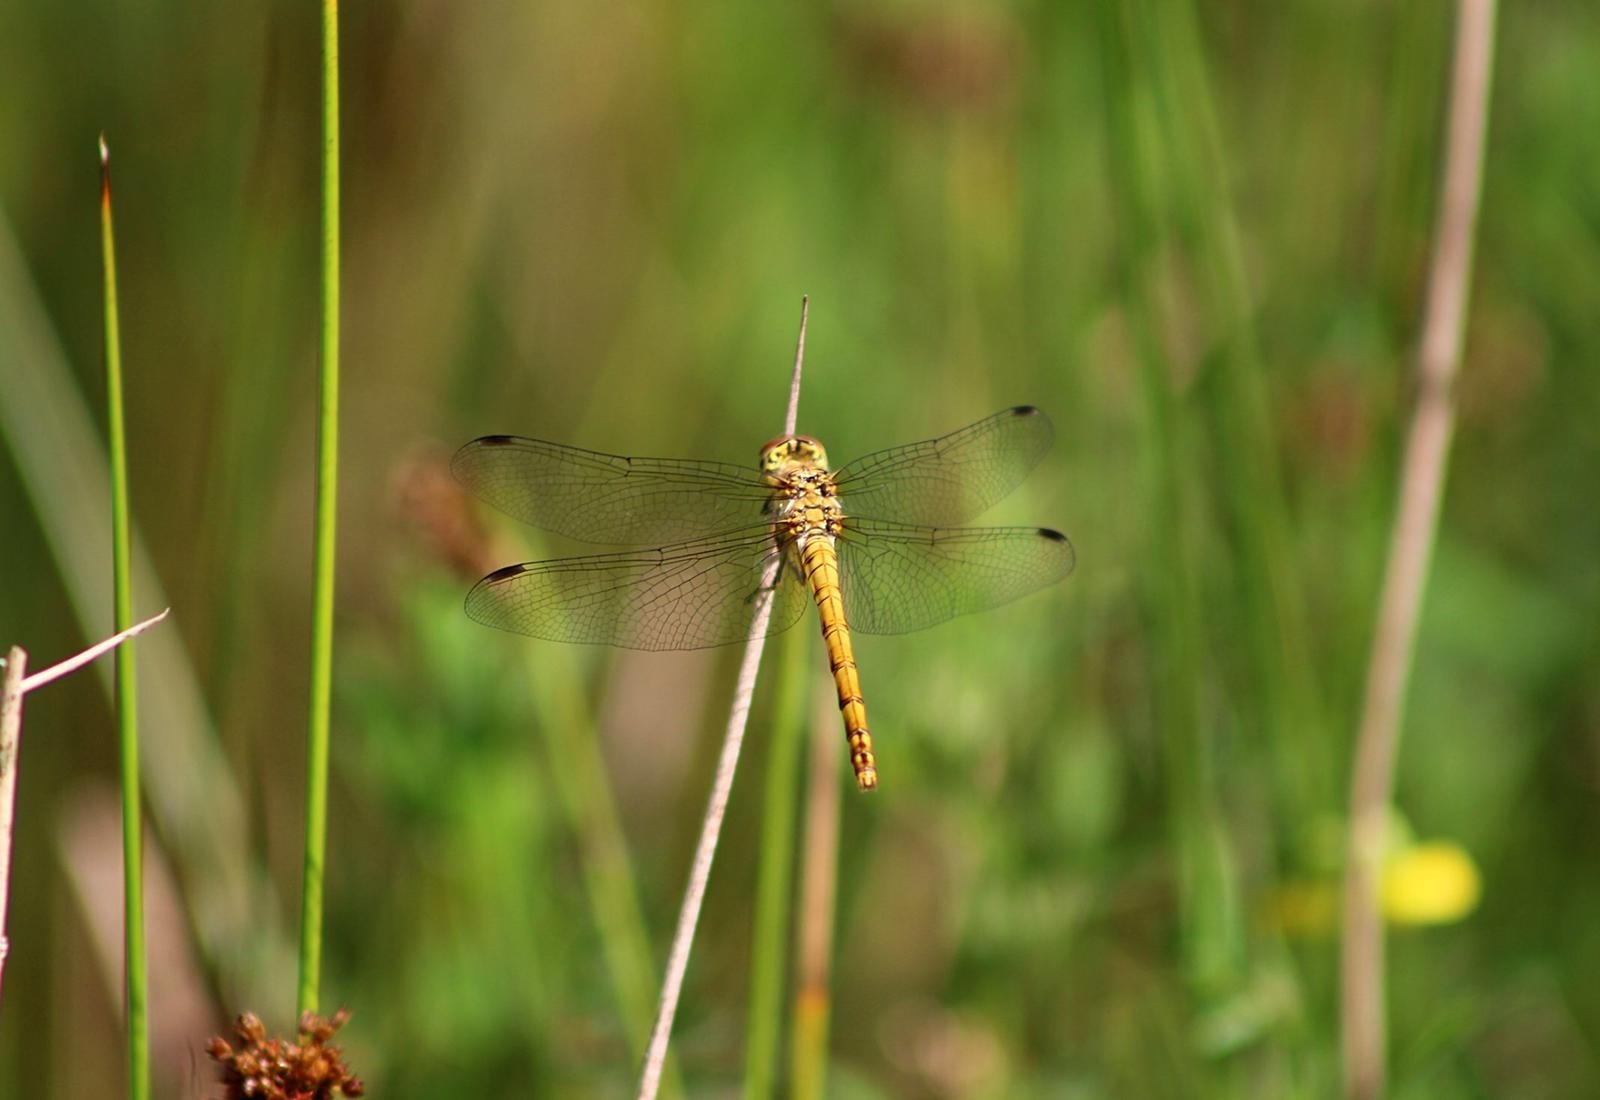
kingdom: Animalia
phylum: Arthropoda
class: Insecta
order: Odonata
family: Libellulidae
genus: Sympetrum
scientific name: Sympetrum striolatum
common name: Common darter
